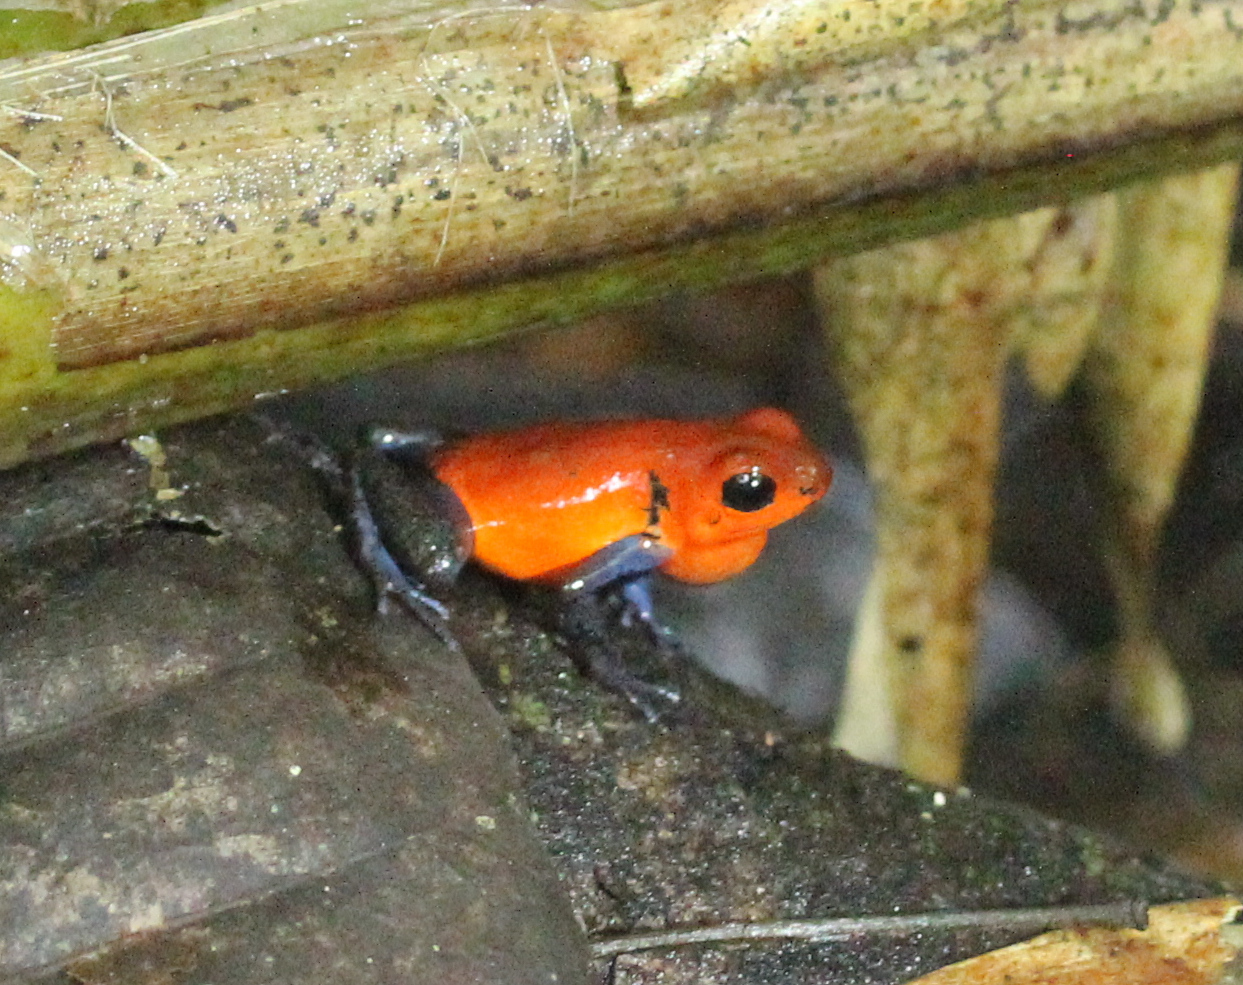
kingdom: Animalia
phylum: Chordata
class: Amphibia
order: Anura
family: Dendrobatidae
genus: Oophaga
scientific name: Oophaga pumilio
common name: Flaming poison frog
